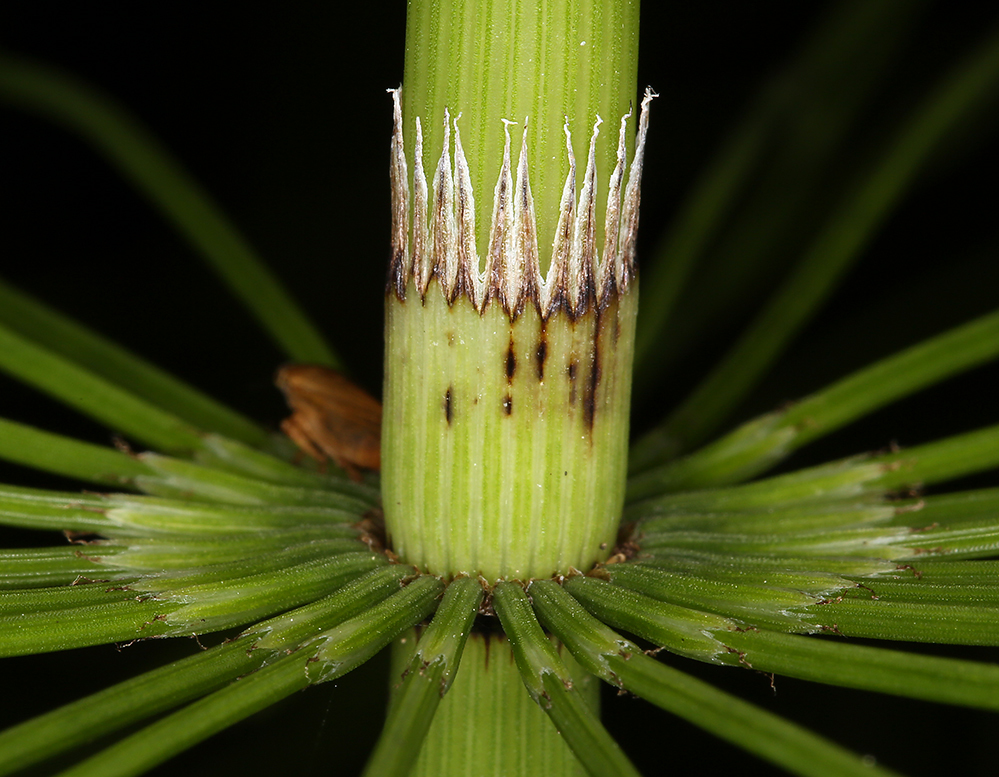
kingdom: Plantae
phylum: Tracheophyta
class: Polypodiopsida
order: Equisetales
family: Equisetaceae
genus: Equisetum
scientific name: Equisetum braunii
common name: Braun's horsetail
